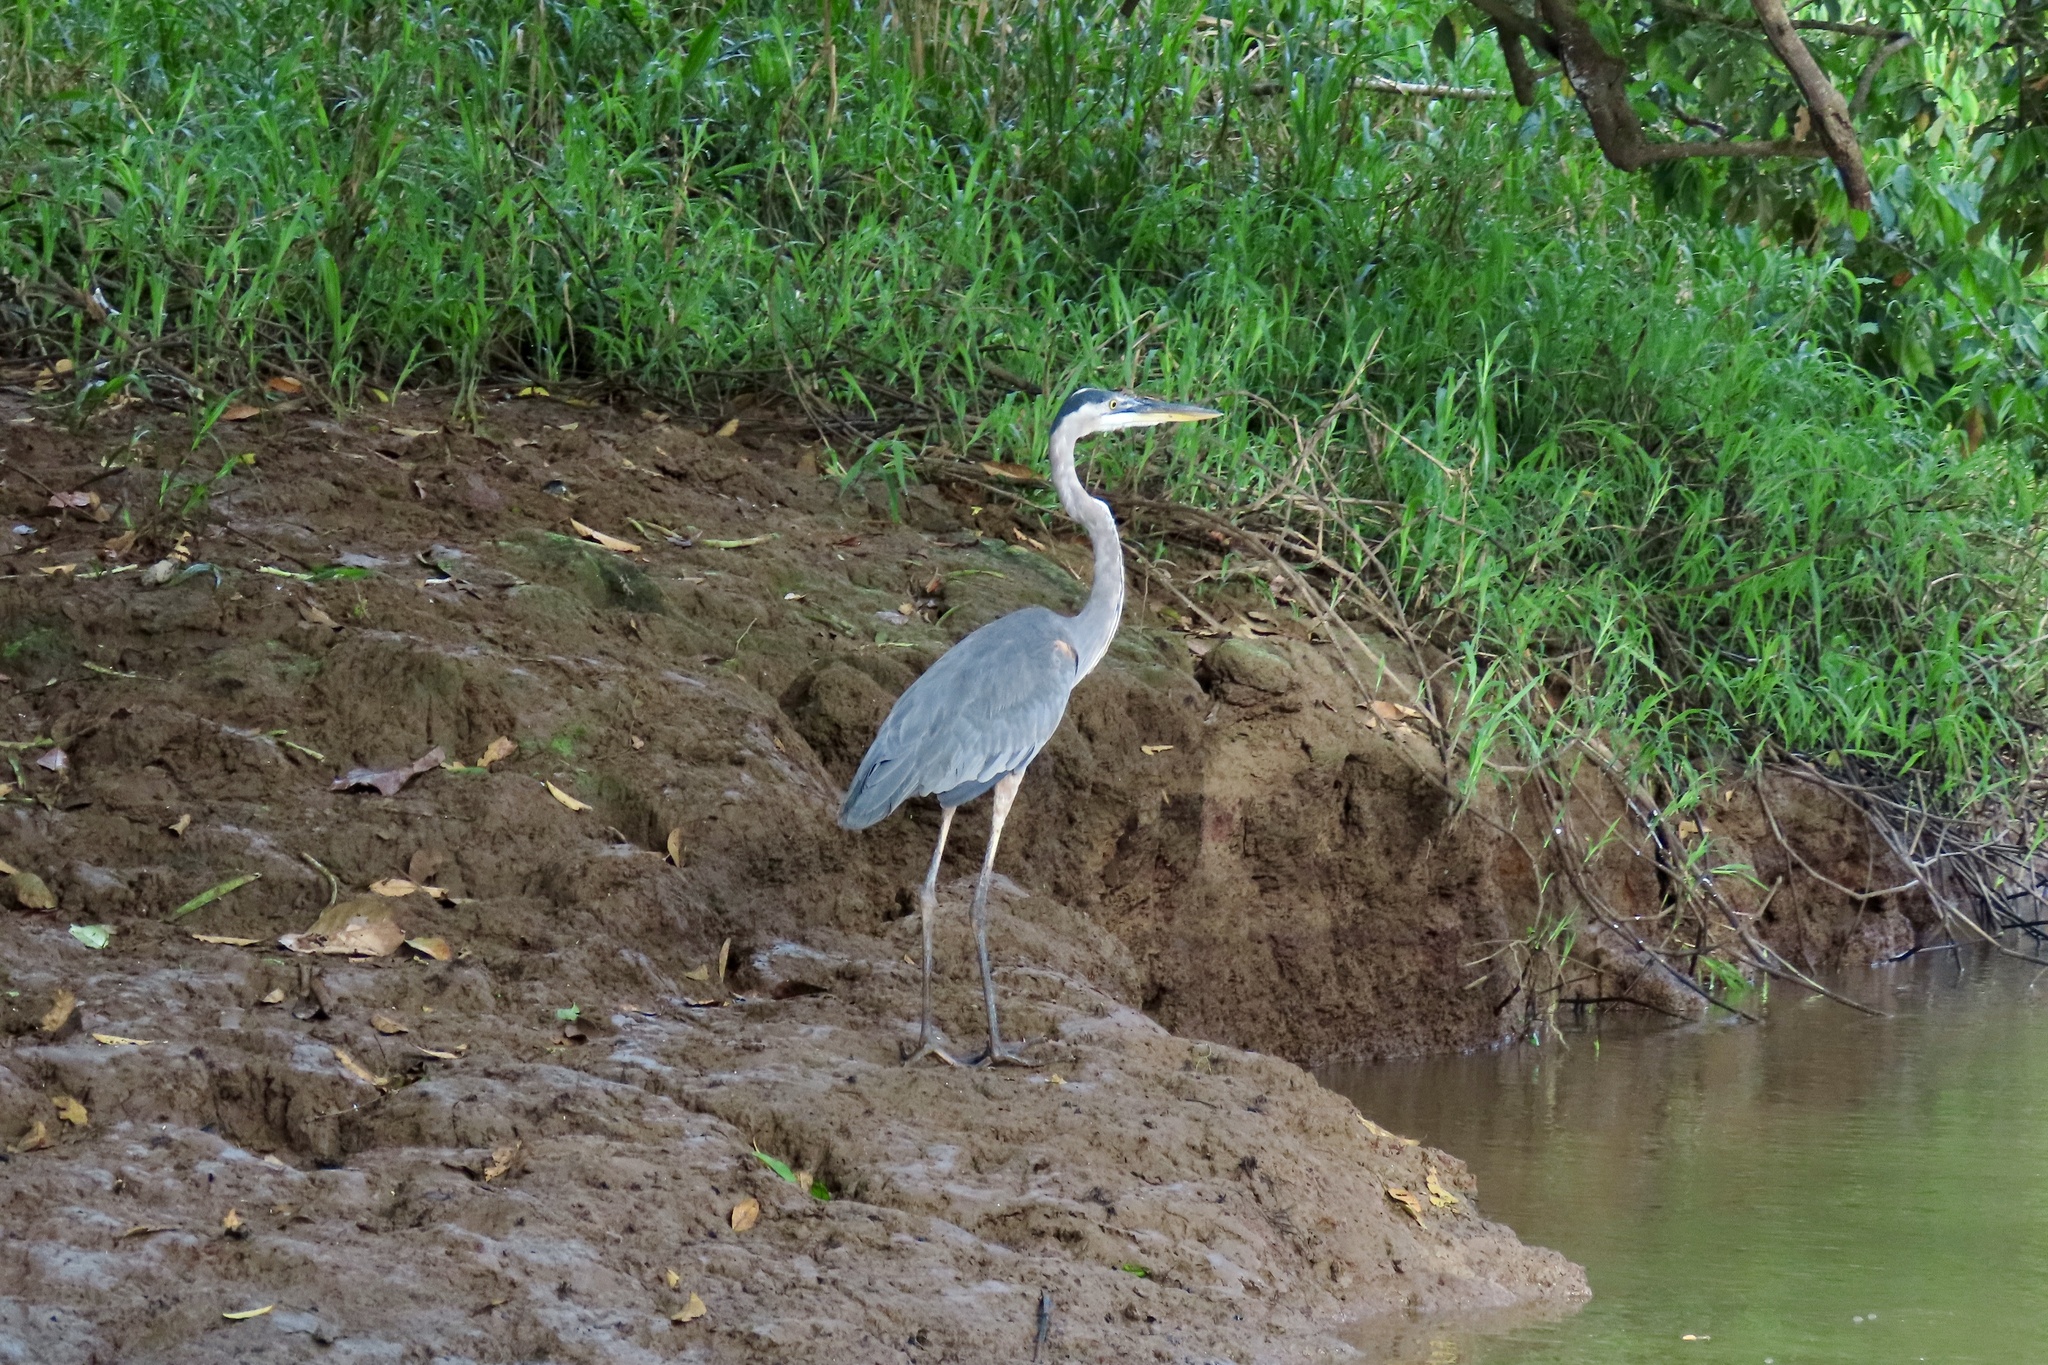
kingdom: Animalia
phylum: Chordata
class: Aves
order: Pelecaniformes
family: Ardeidae
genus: Ardea
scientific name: Ardea herodias
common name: Great blue heron
